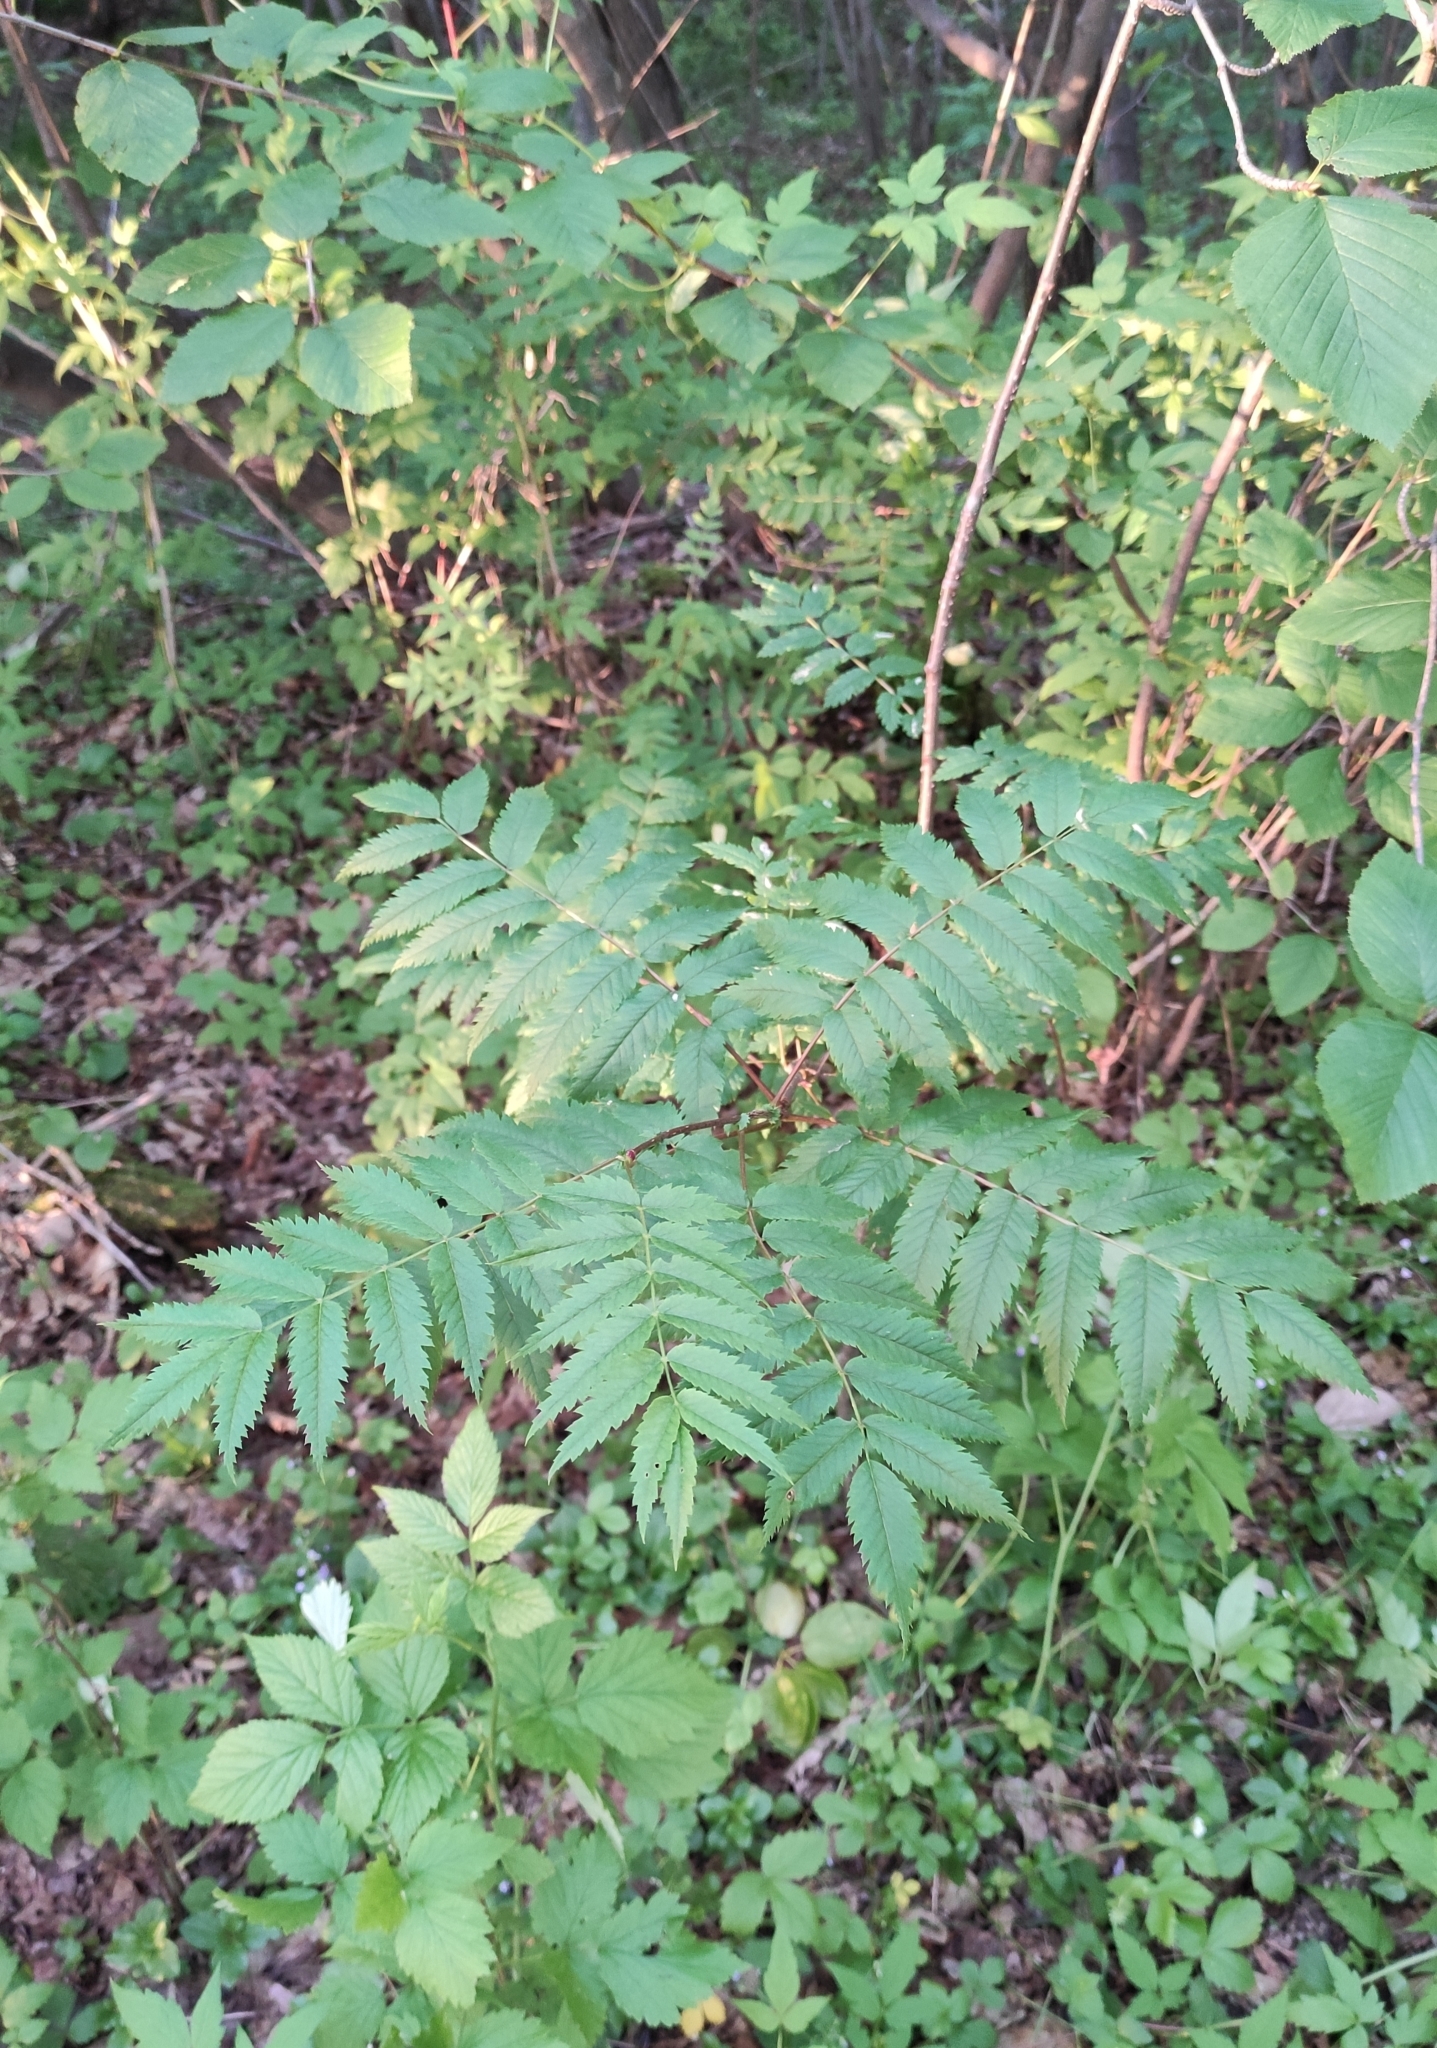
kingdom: Plantae
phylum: Tracheophyta
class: Magnoliopsida
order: Rosales
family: Rosaceae
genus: Sorbus
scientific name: Sorbus aucuparia
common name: Rowan
